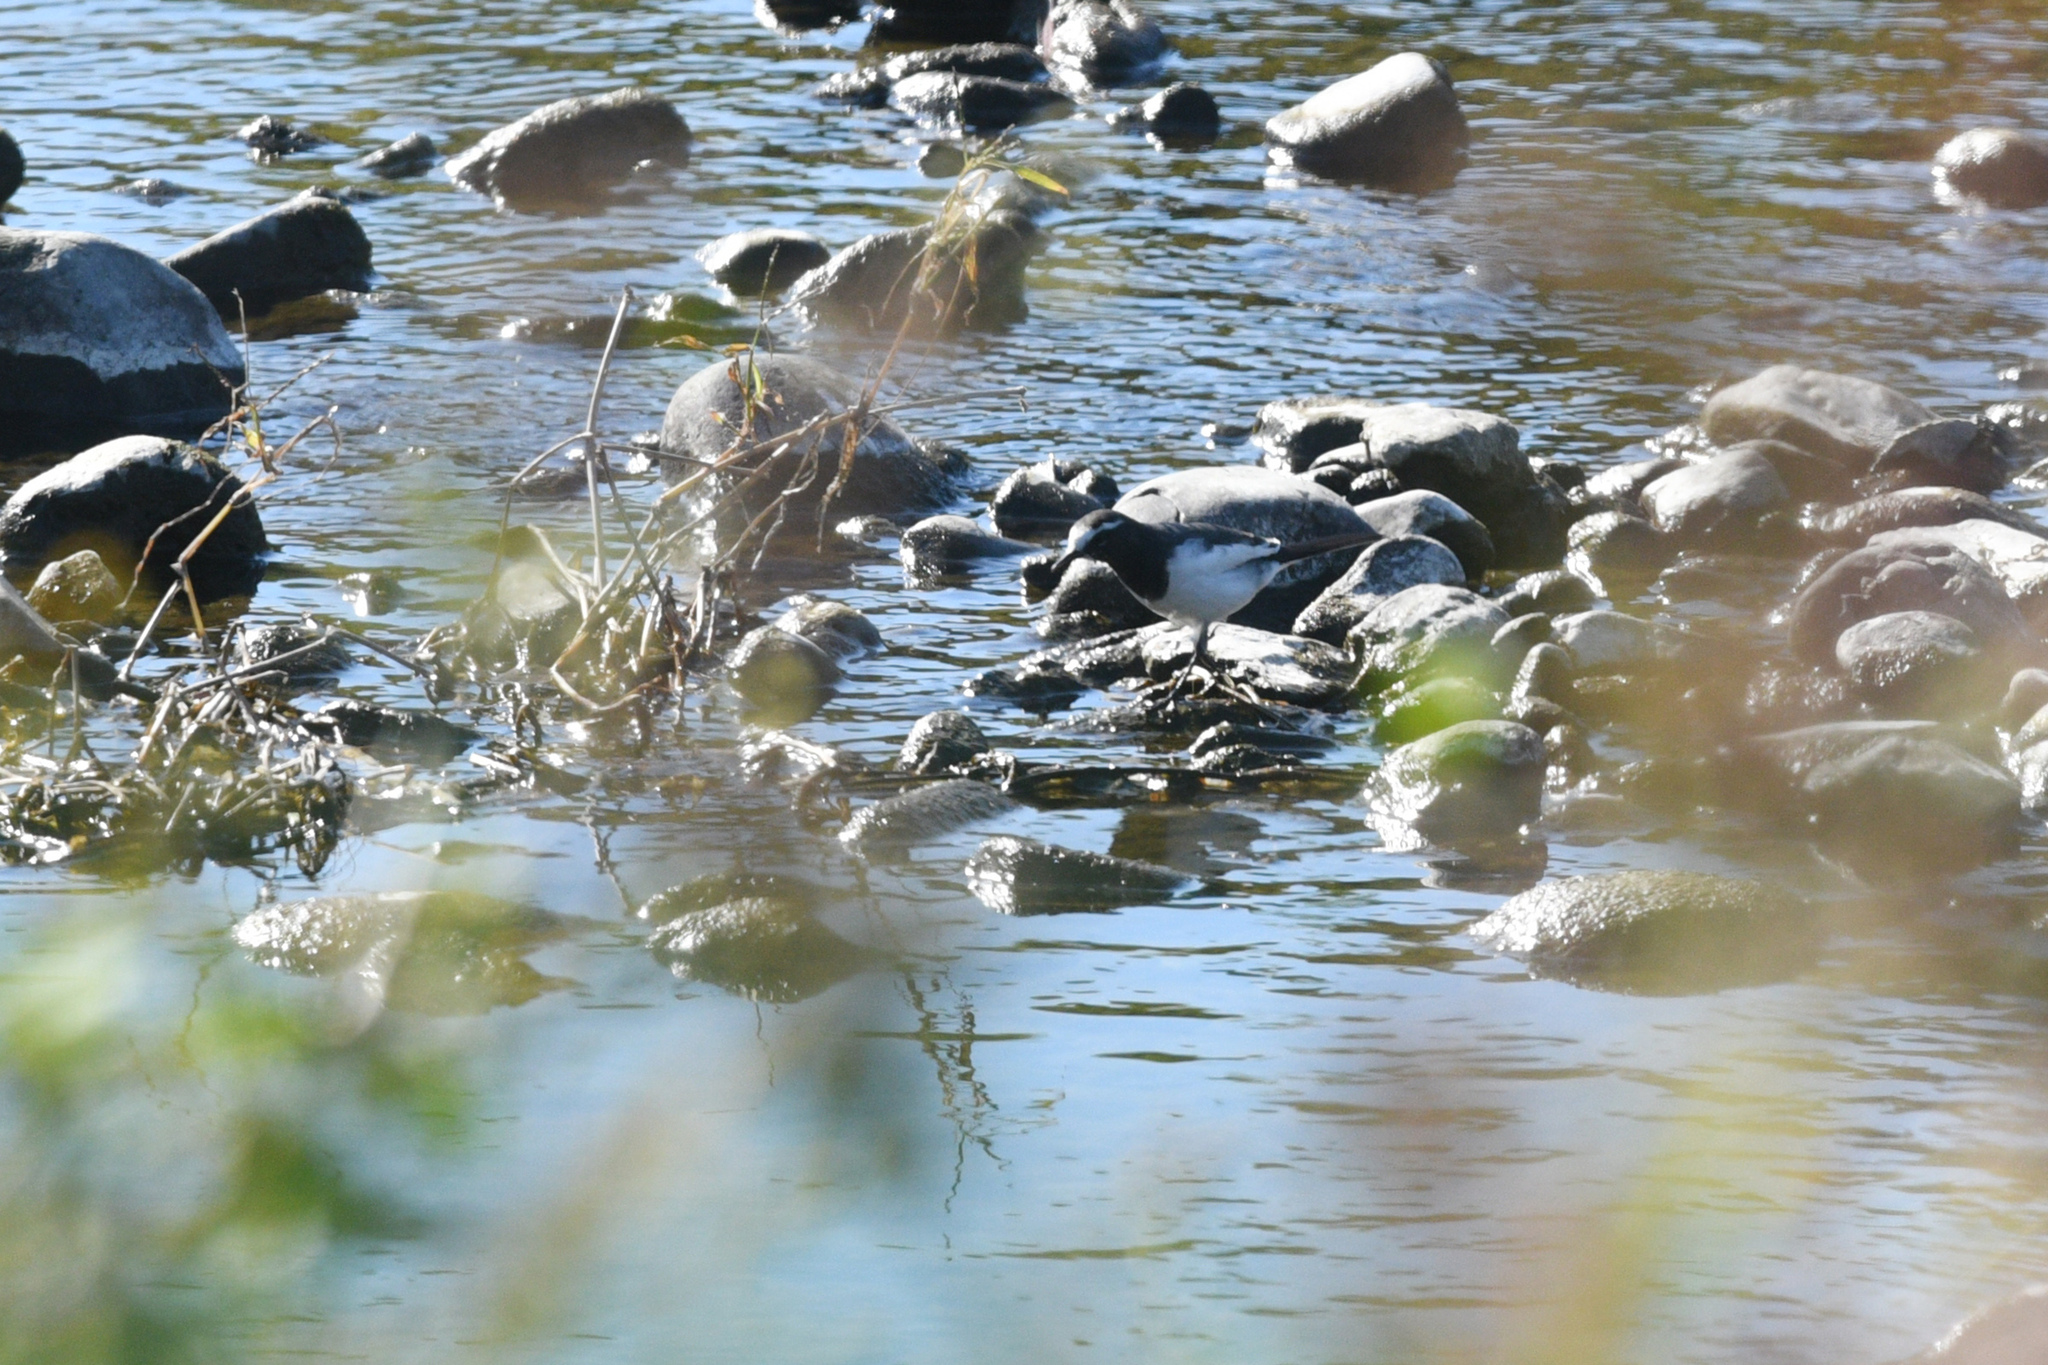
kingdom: Animalia
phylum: Chordata
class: Aves
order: Passeriformes
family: Motacillidae
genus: Motacilla
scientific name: Motacilla grandis
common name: Japanese wagtail
